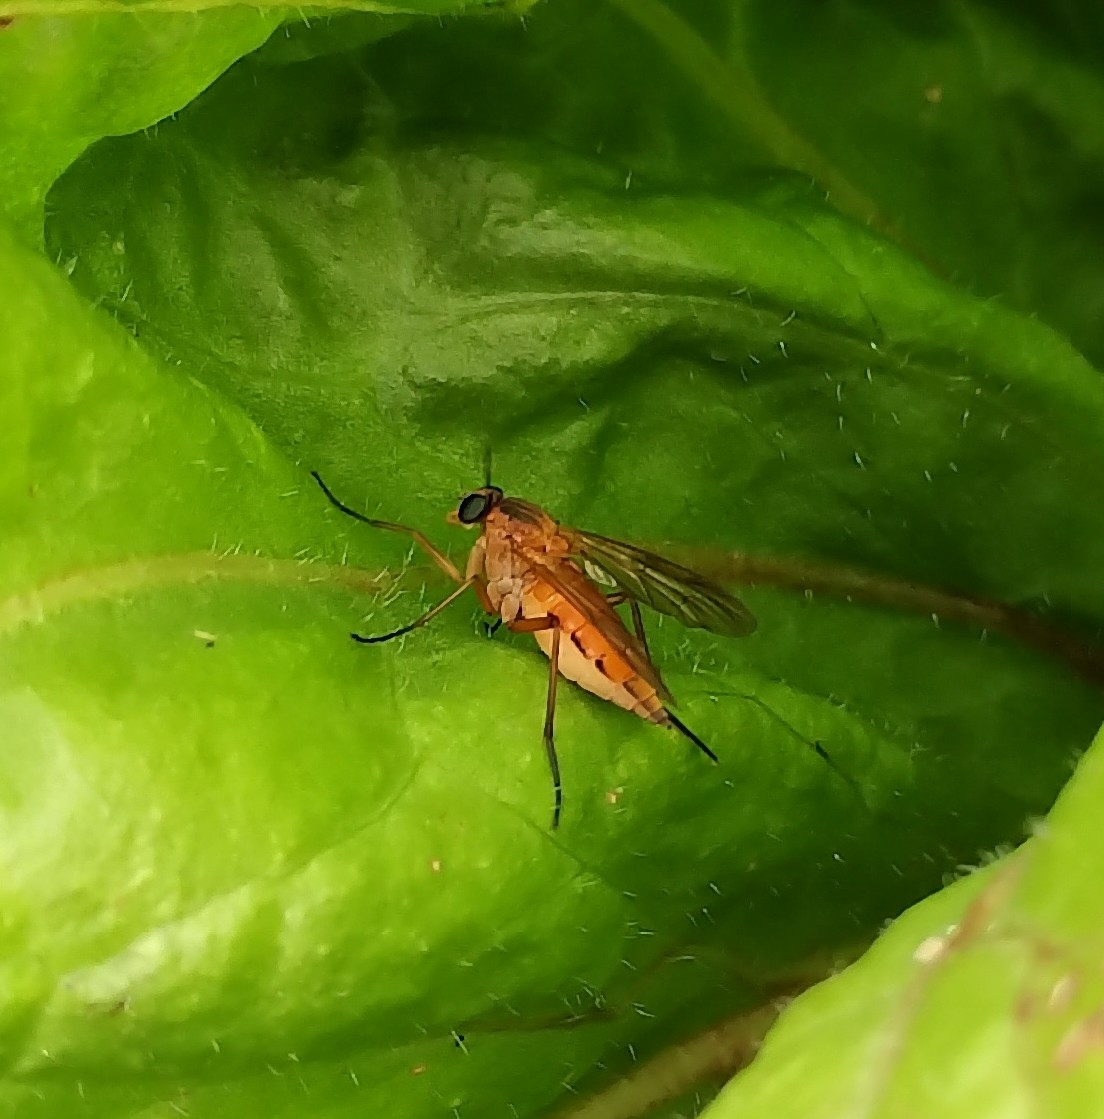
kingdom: Animalia
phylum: Arthropoda
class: Insecta
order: Diptera
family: Rhagionidae
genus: Rhagio
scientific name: Rhagio tringaria
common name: Marsh snipefly
